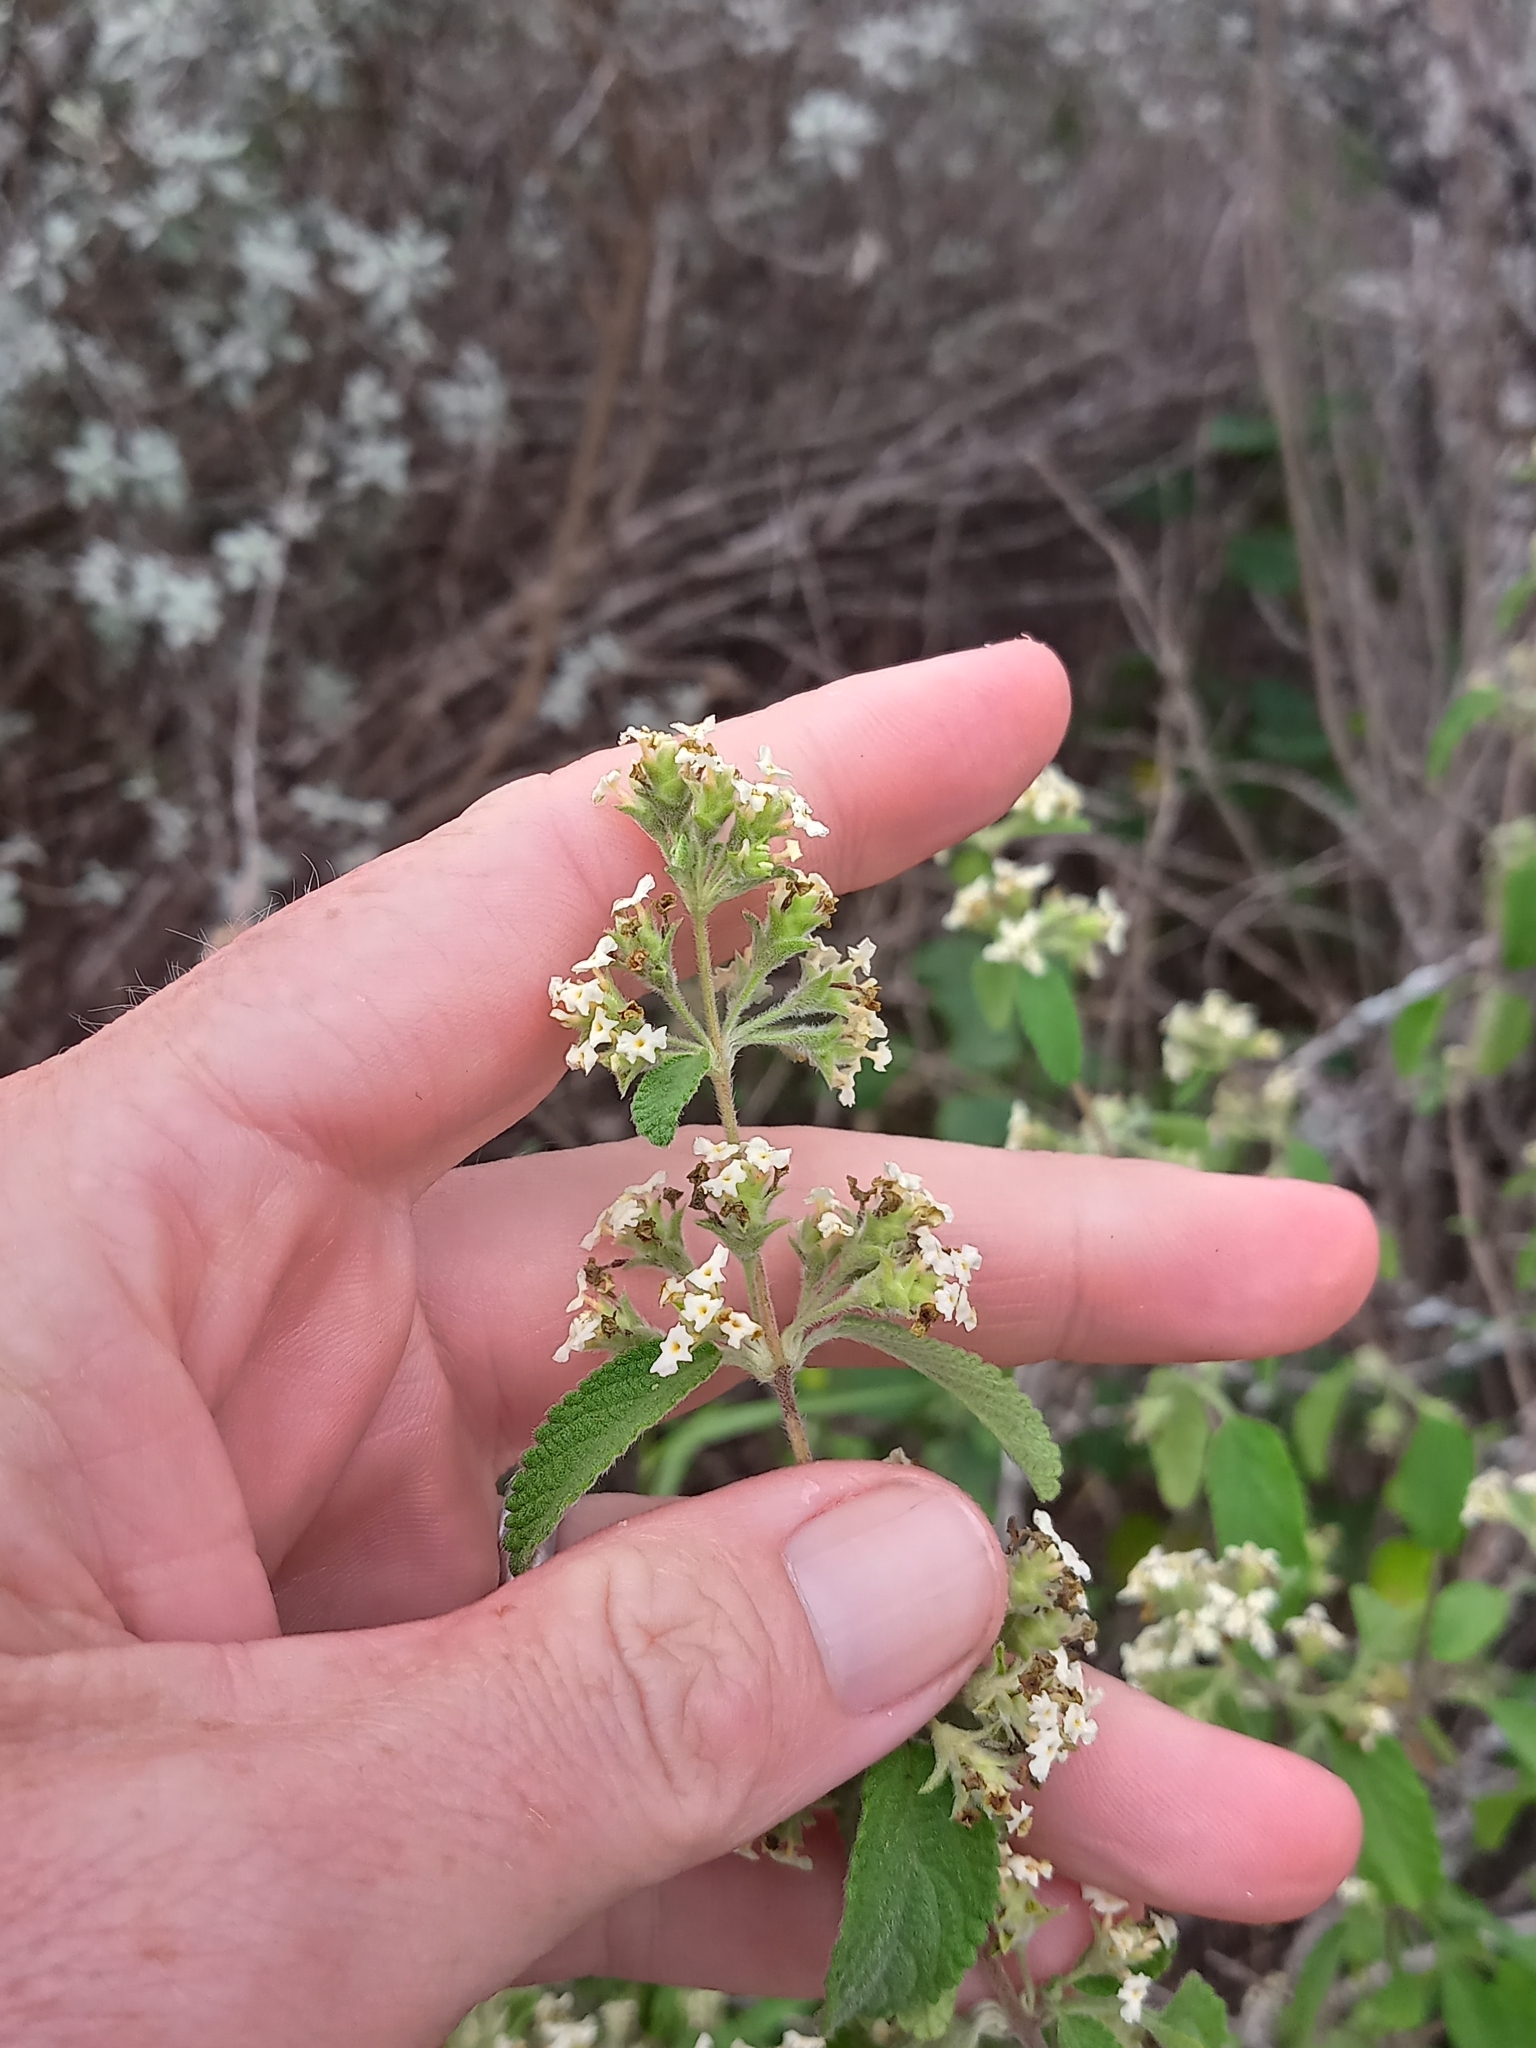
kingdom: Plantae
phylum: Tracheophyta
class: Magnoliopsida
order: Lamiales
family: Verbenaceae
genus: Lippia
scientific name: Lippia origanoides
